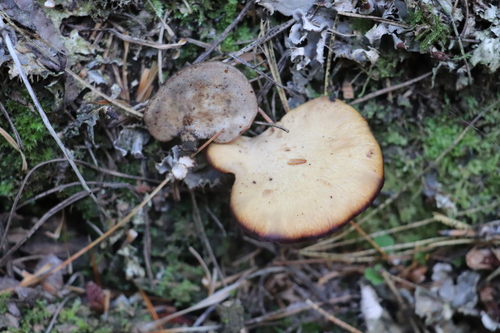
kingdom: Fungi
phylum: Basidiomycota
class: Agaricomycetes
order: Polyporales
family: Polyporaceae
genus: Cerioporus
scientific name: Cerioporus varius
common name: Elegant polypore
